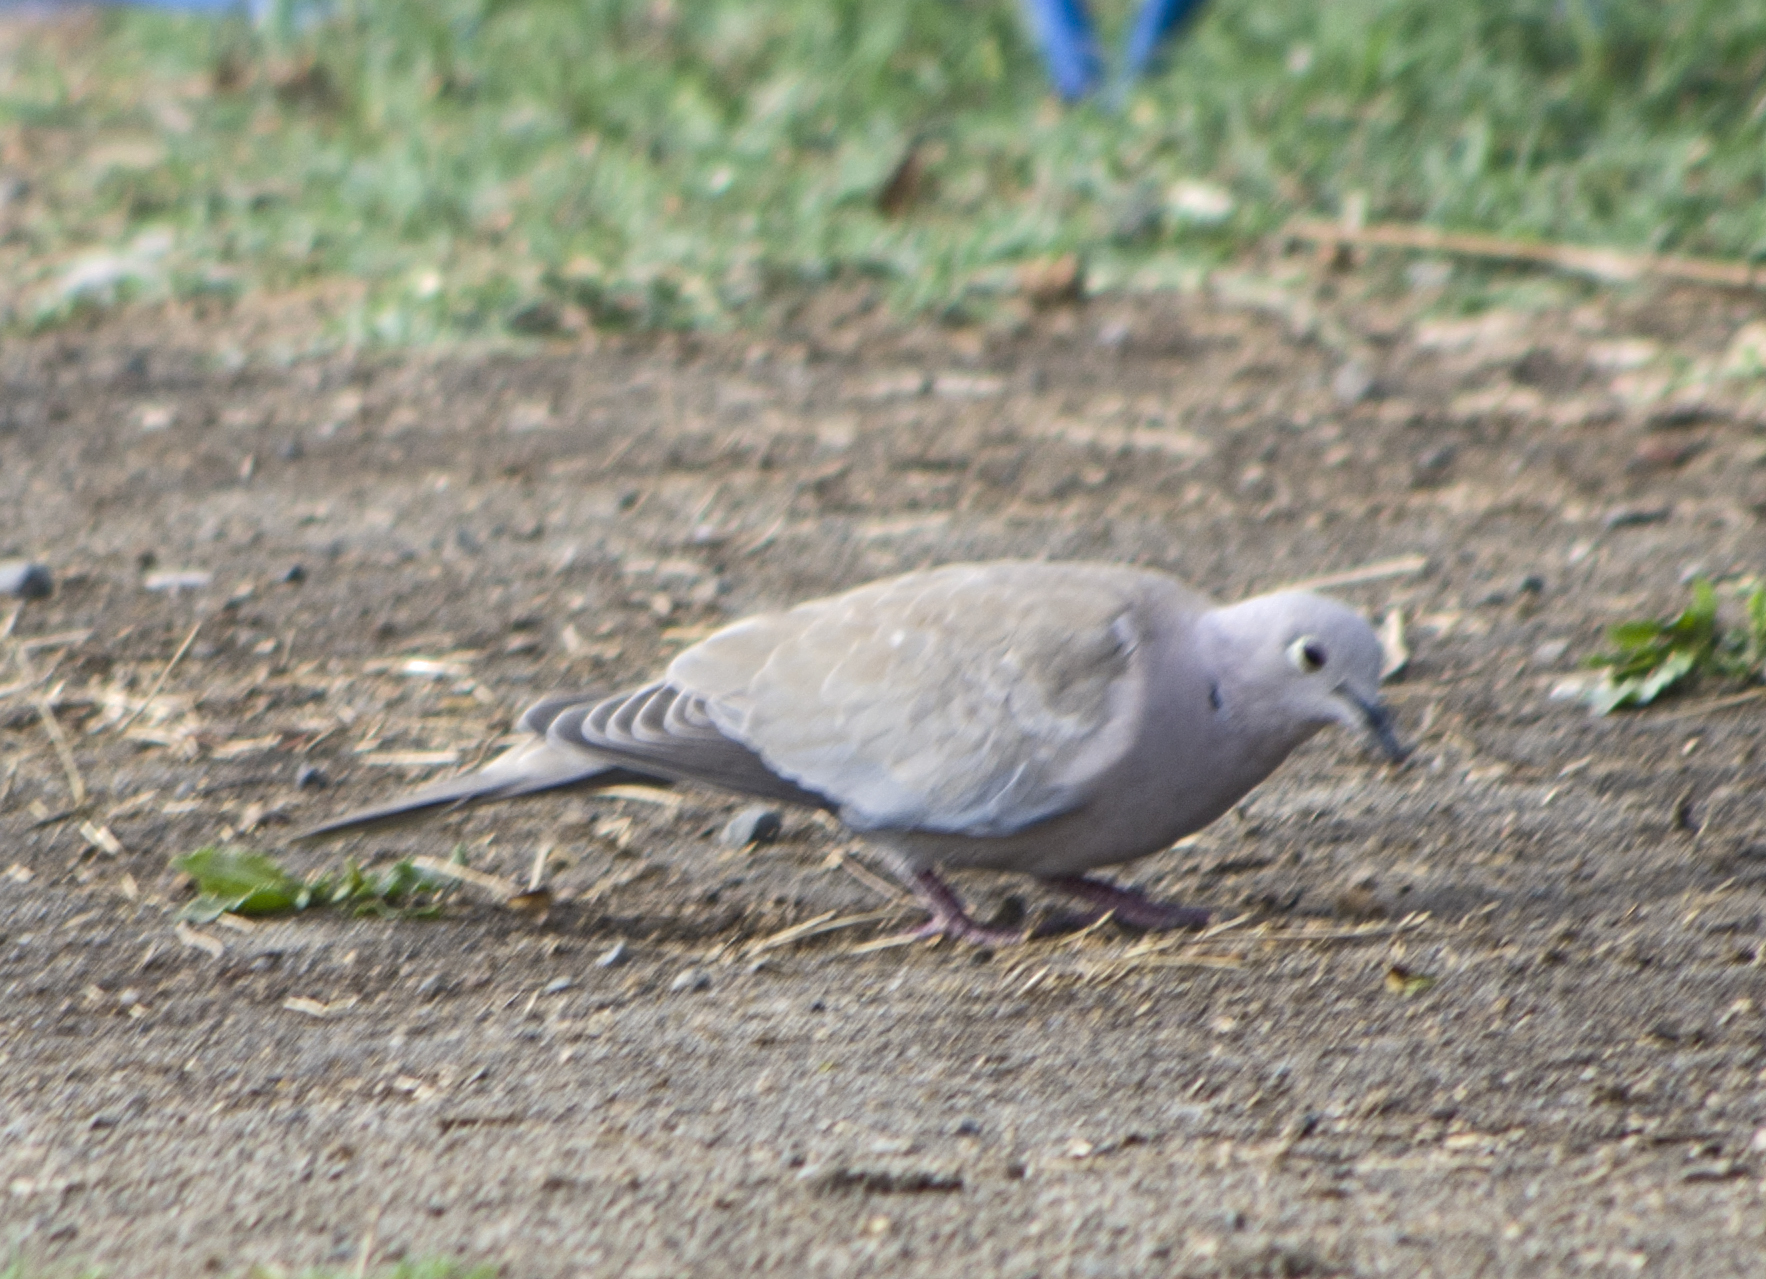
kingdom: Animalia
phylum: Chordata
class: Aves
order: Columbiformes
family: Columbidae
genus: Streptopelia
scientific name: Streptopelia decaocto
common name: Eurasian collared dove
